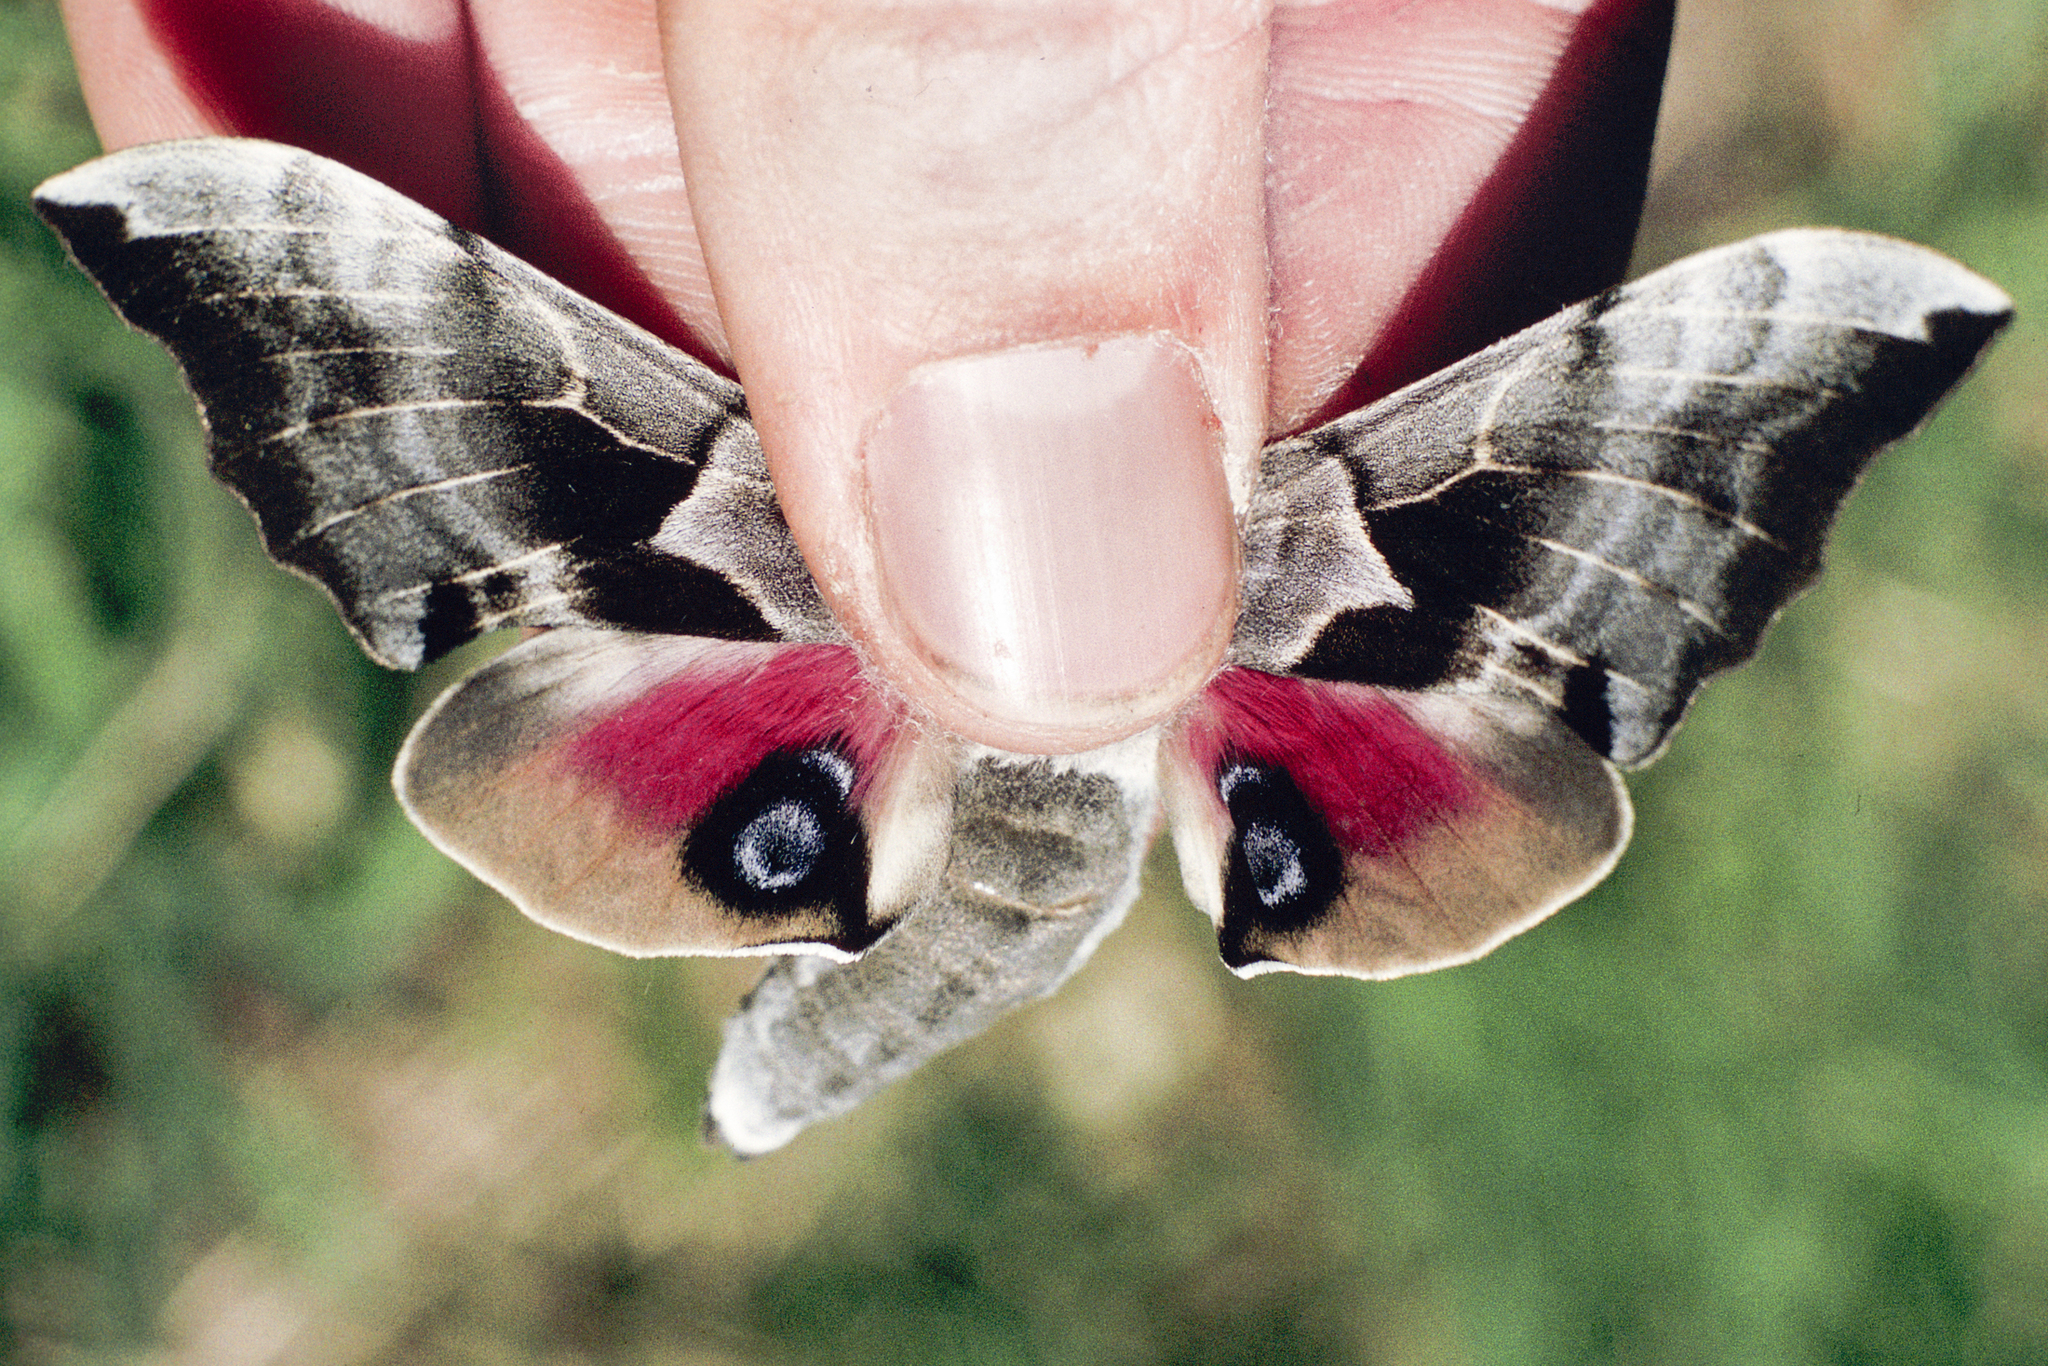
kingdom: Animalia
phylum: Arthropoda
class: Insecta
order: Lepidoptera
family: Sphingidae
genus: Smerinthus
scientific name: Smerinthus cerisyi
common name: Cerisy's sphinx moth
